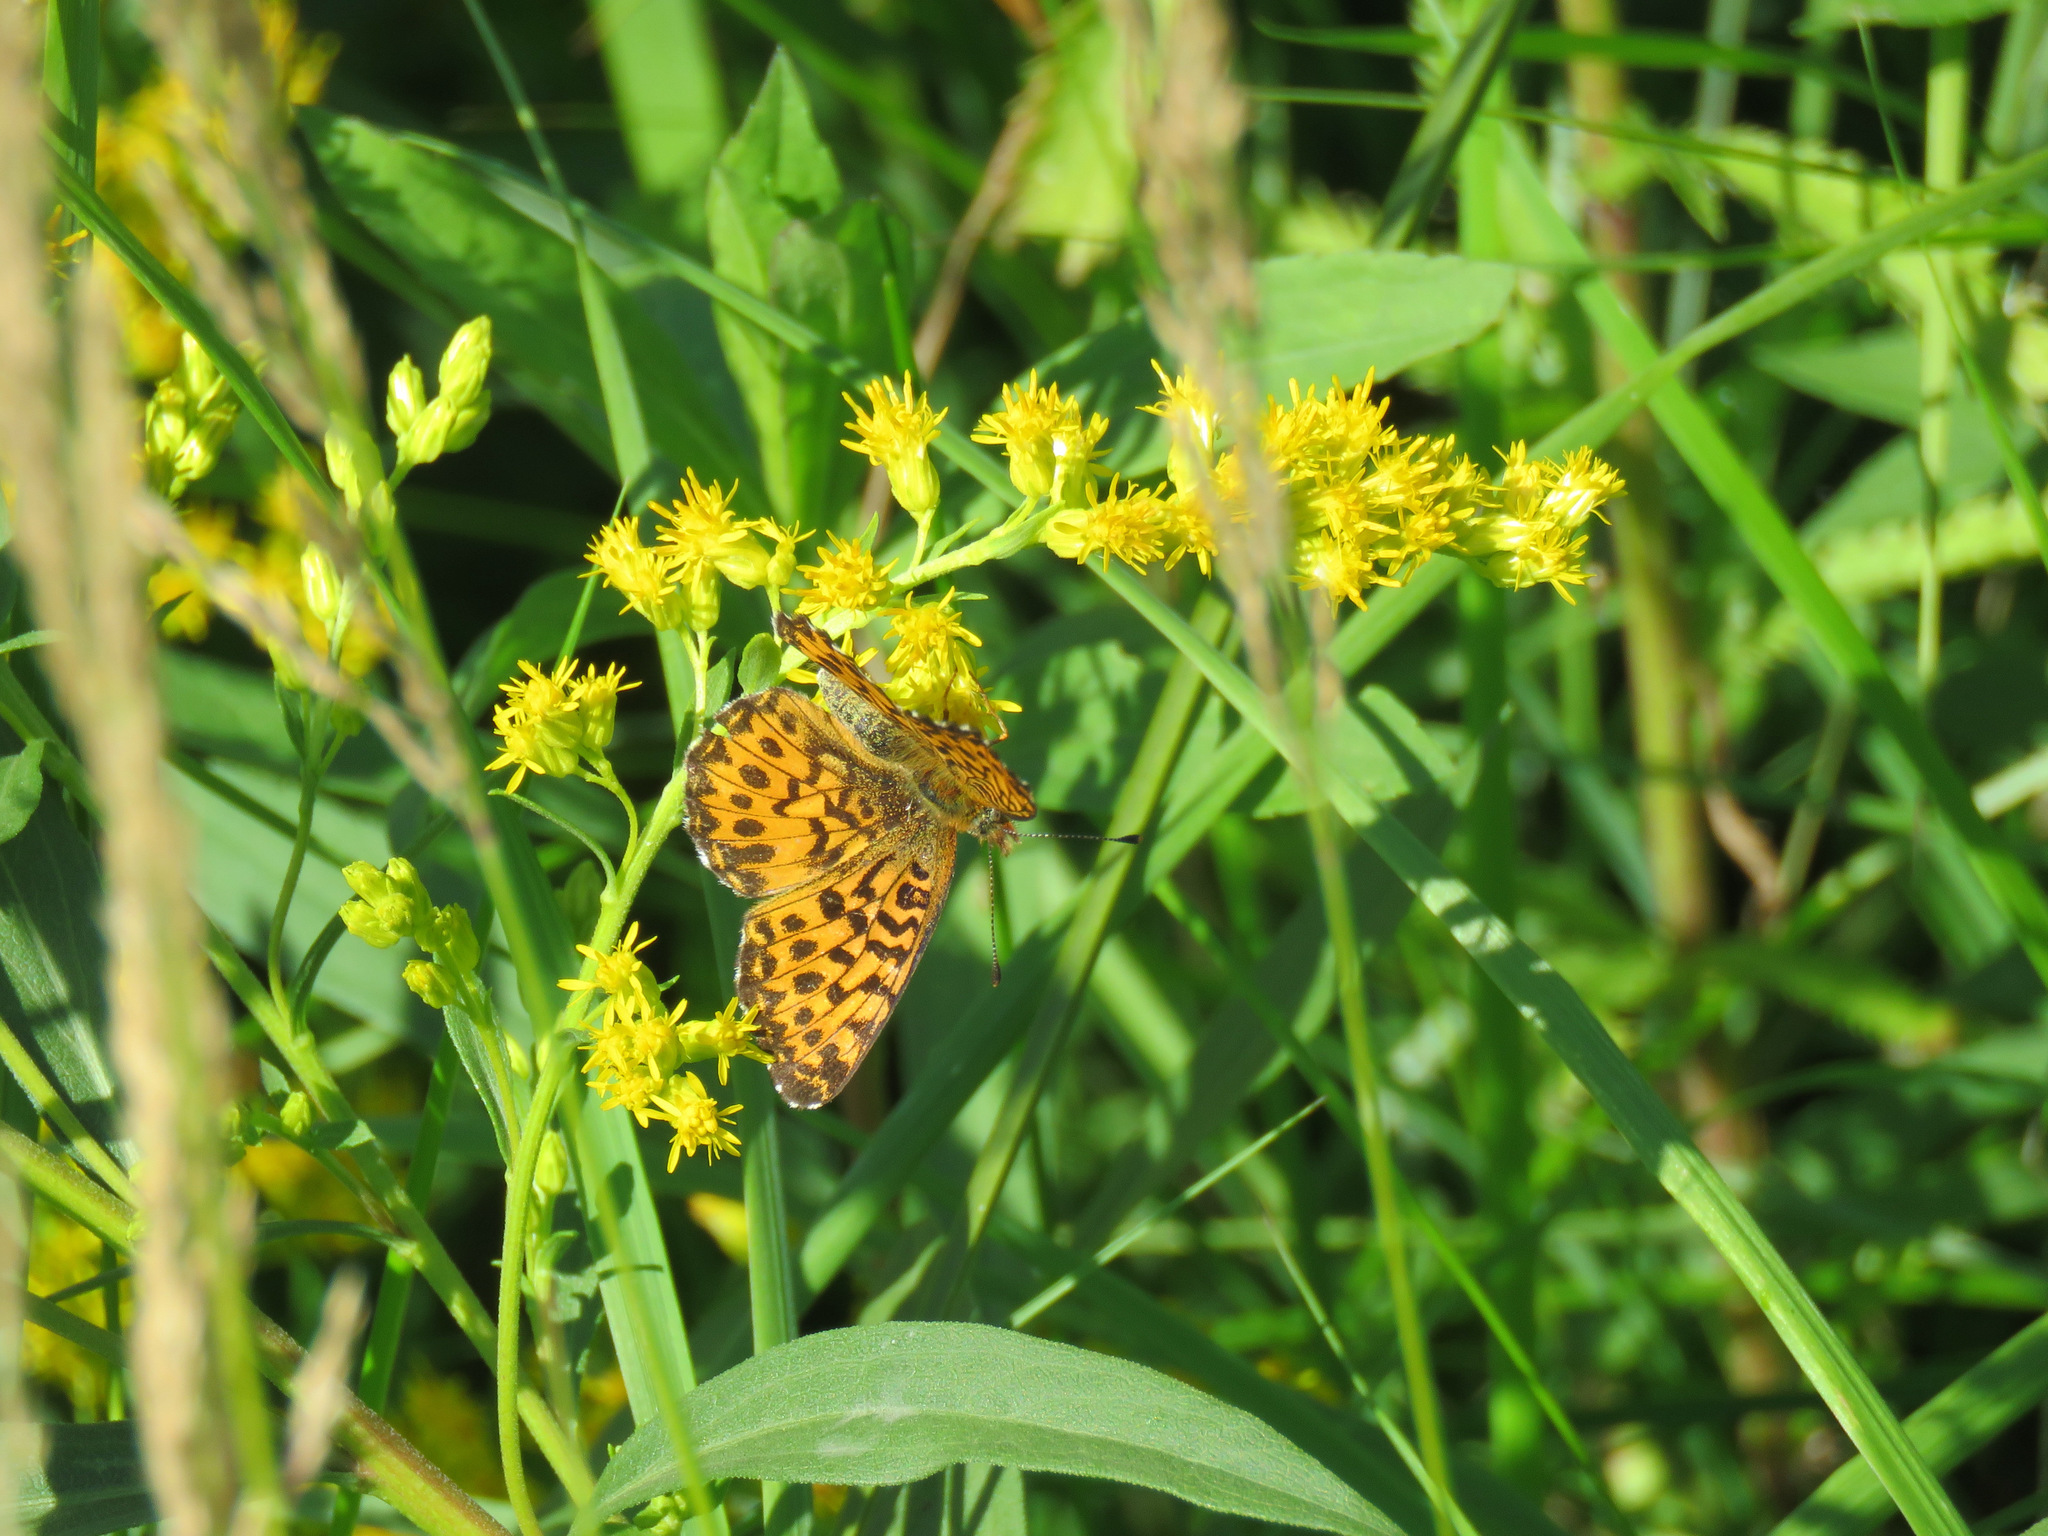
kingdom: Animalia
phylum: Arthropoda
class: Insecta
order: Lepidoptera
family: Nymphalidae
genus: Boloria
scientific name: Boloria chariclea
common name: Arctic fritillary
